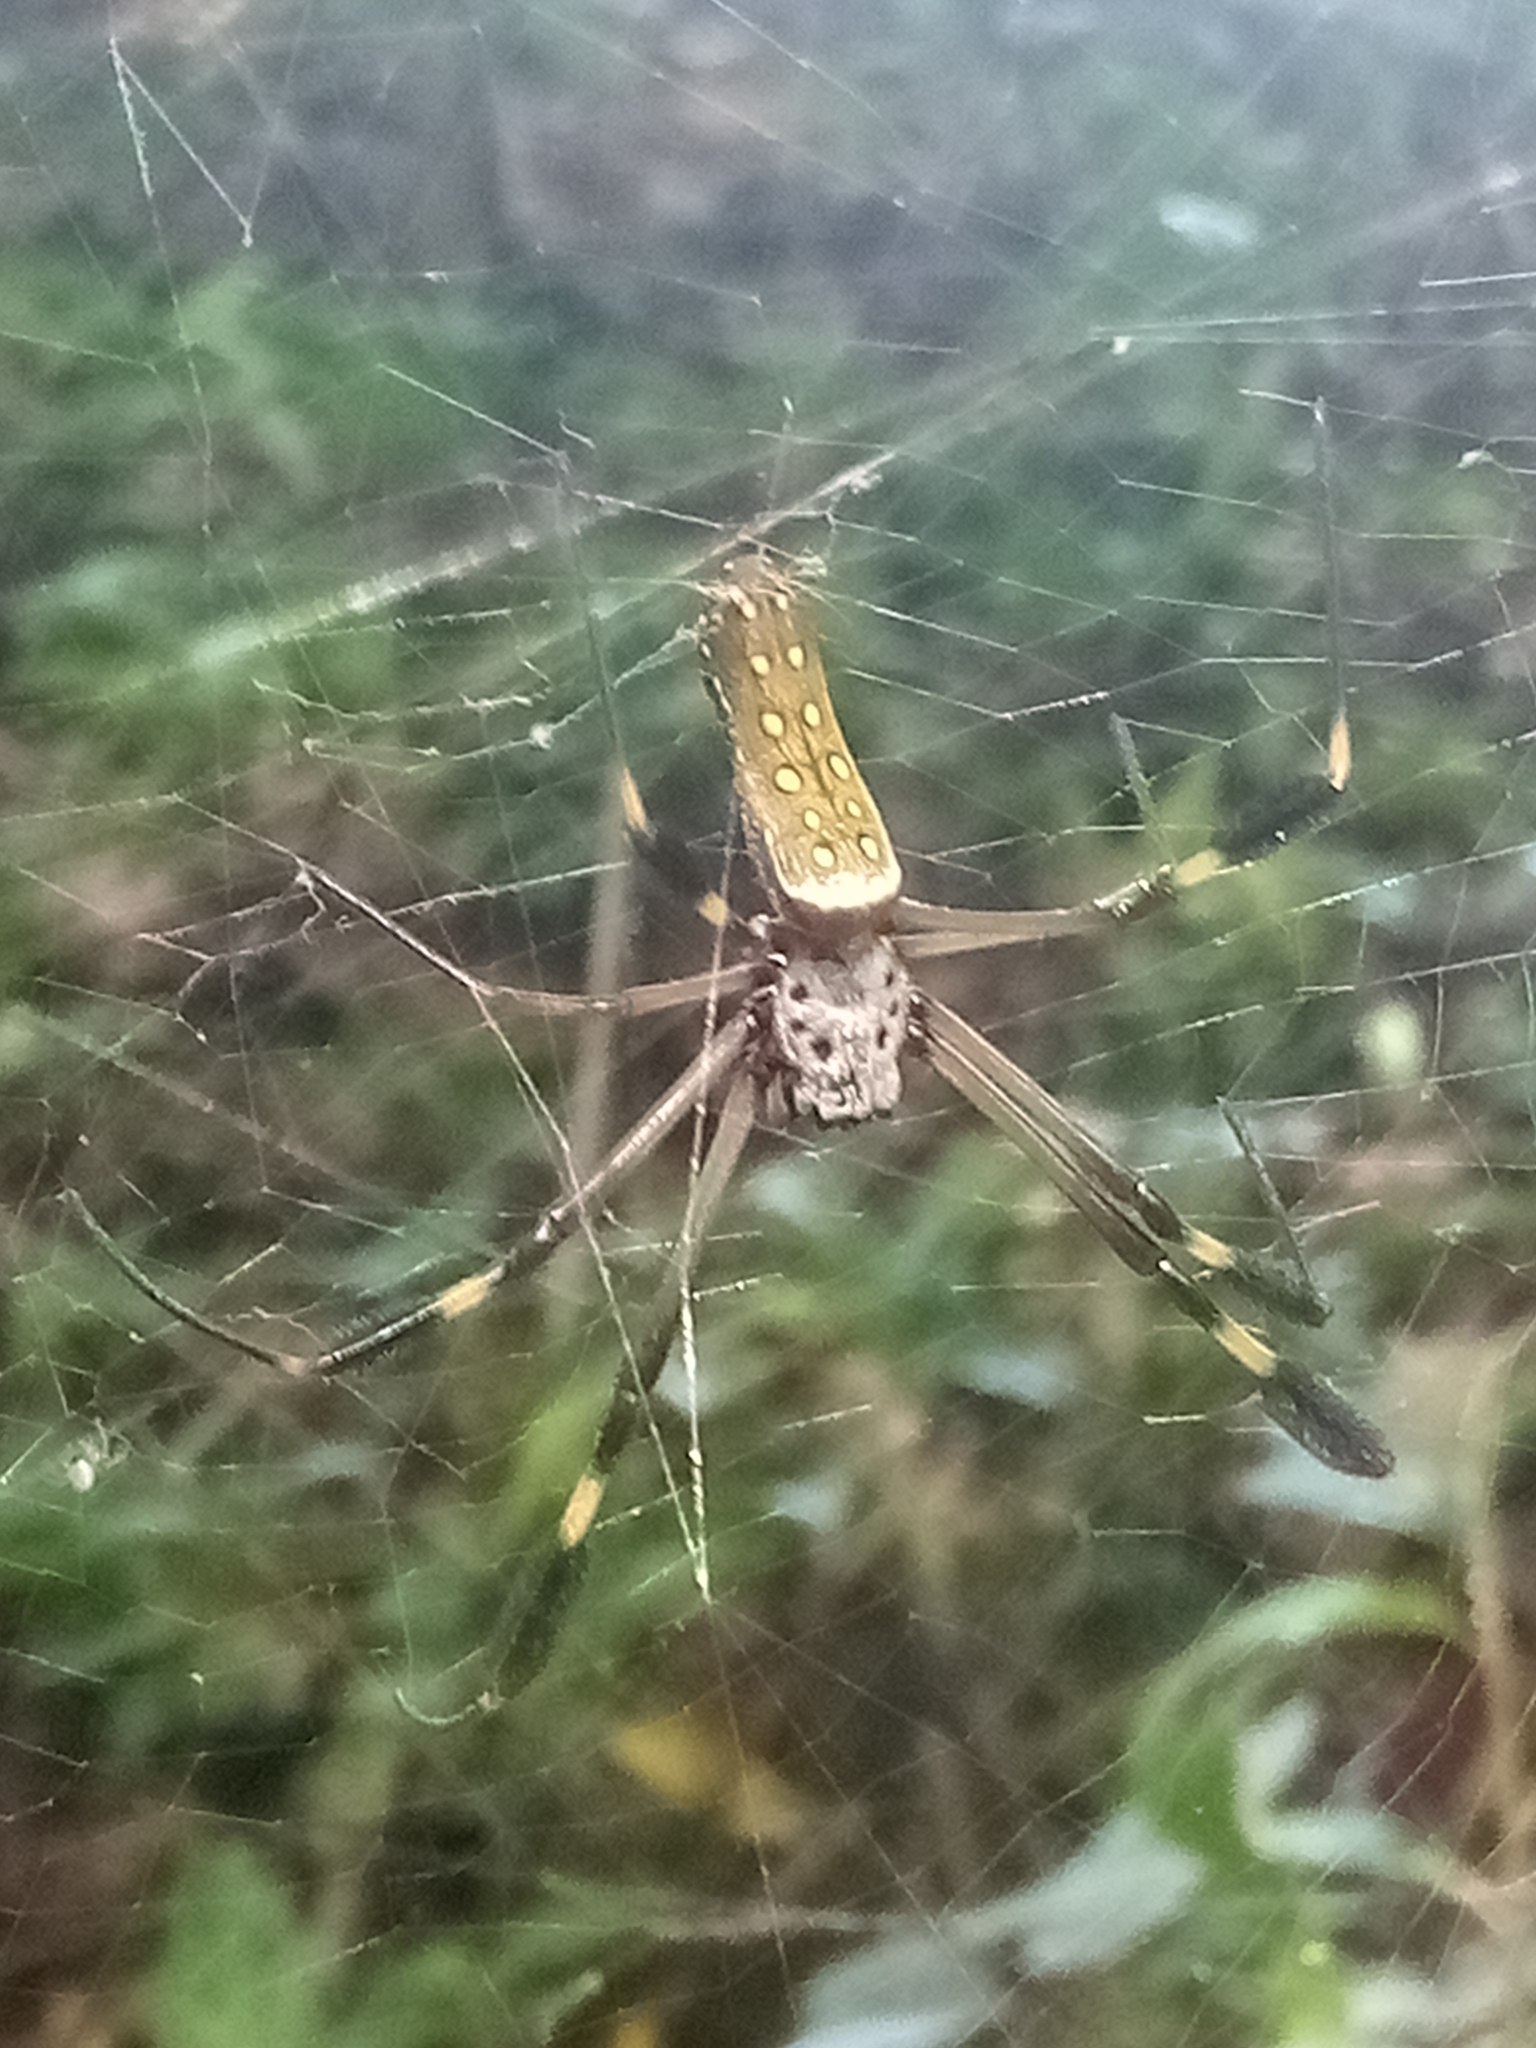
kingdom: Animalia
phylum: Arthropoda
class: Arachnida
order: Araneae
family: Araneidae
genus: Trichonephila
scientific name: Trichonephila clavipes
